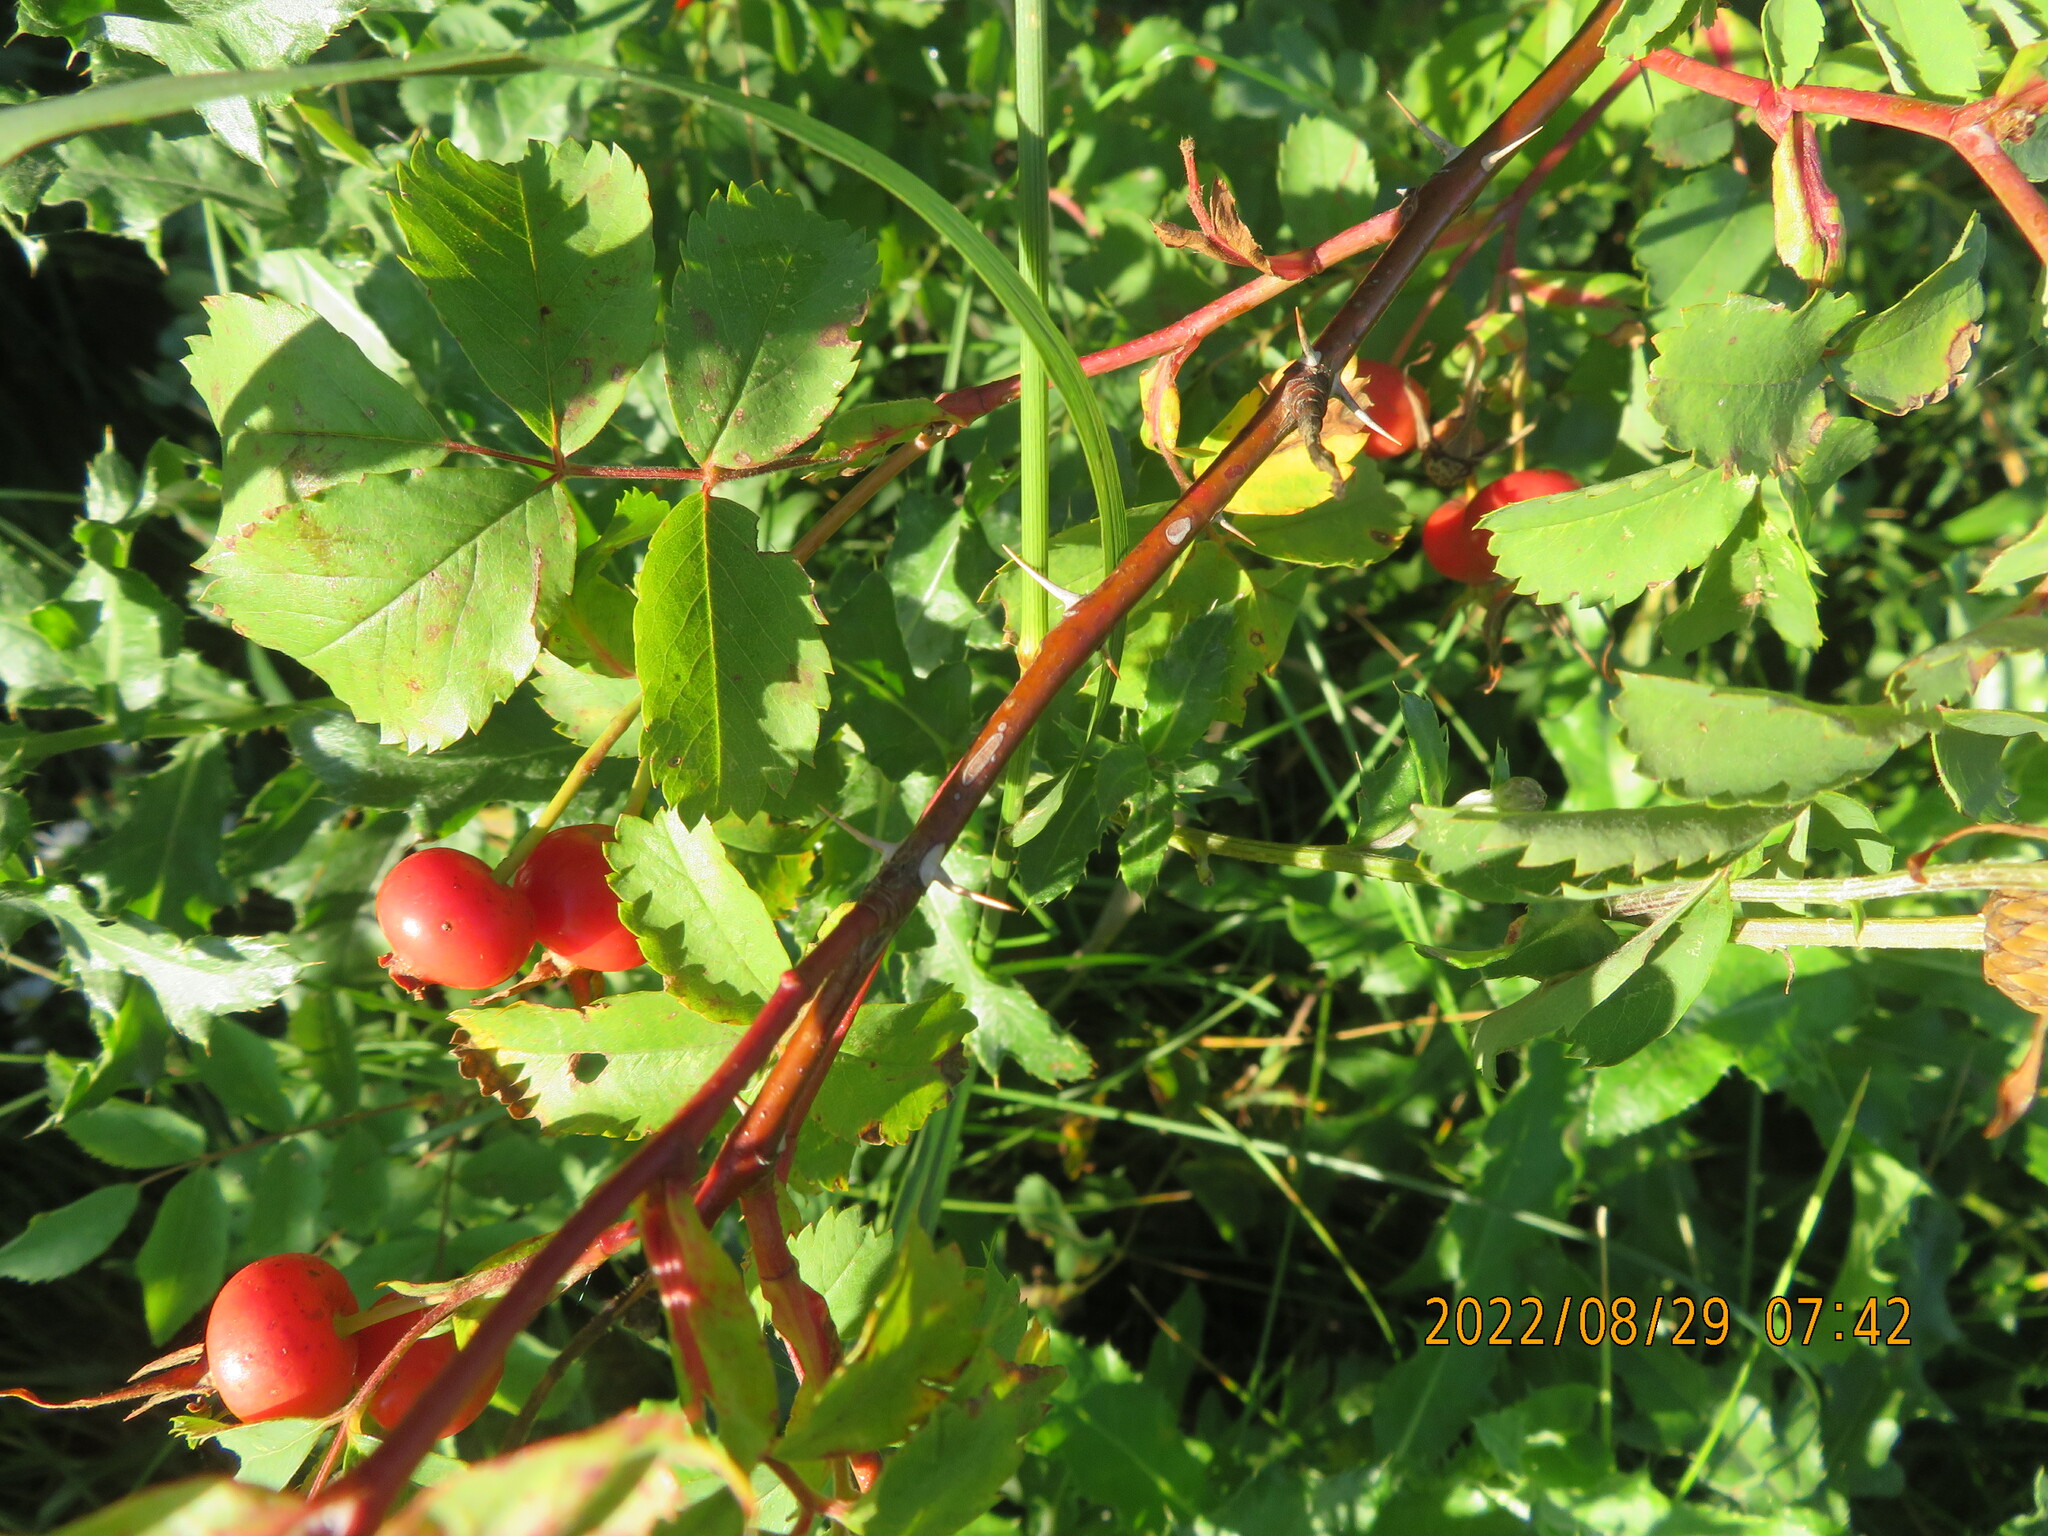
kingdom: Plantae
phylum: Tracheophyta
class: Magnoliopsida
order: Rosales
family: Rosaceae
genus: Rosa
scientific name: Rosa woodsii
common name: Woods's rose
